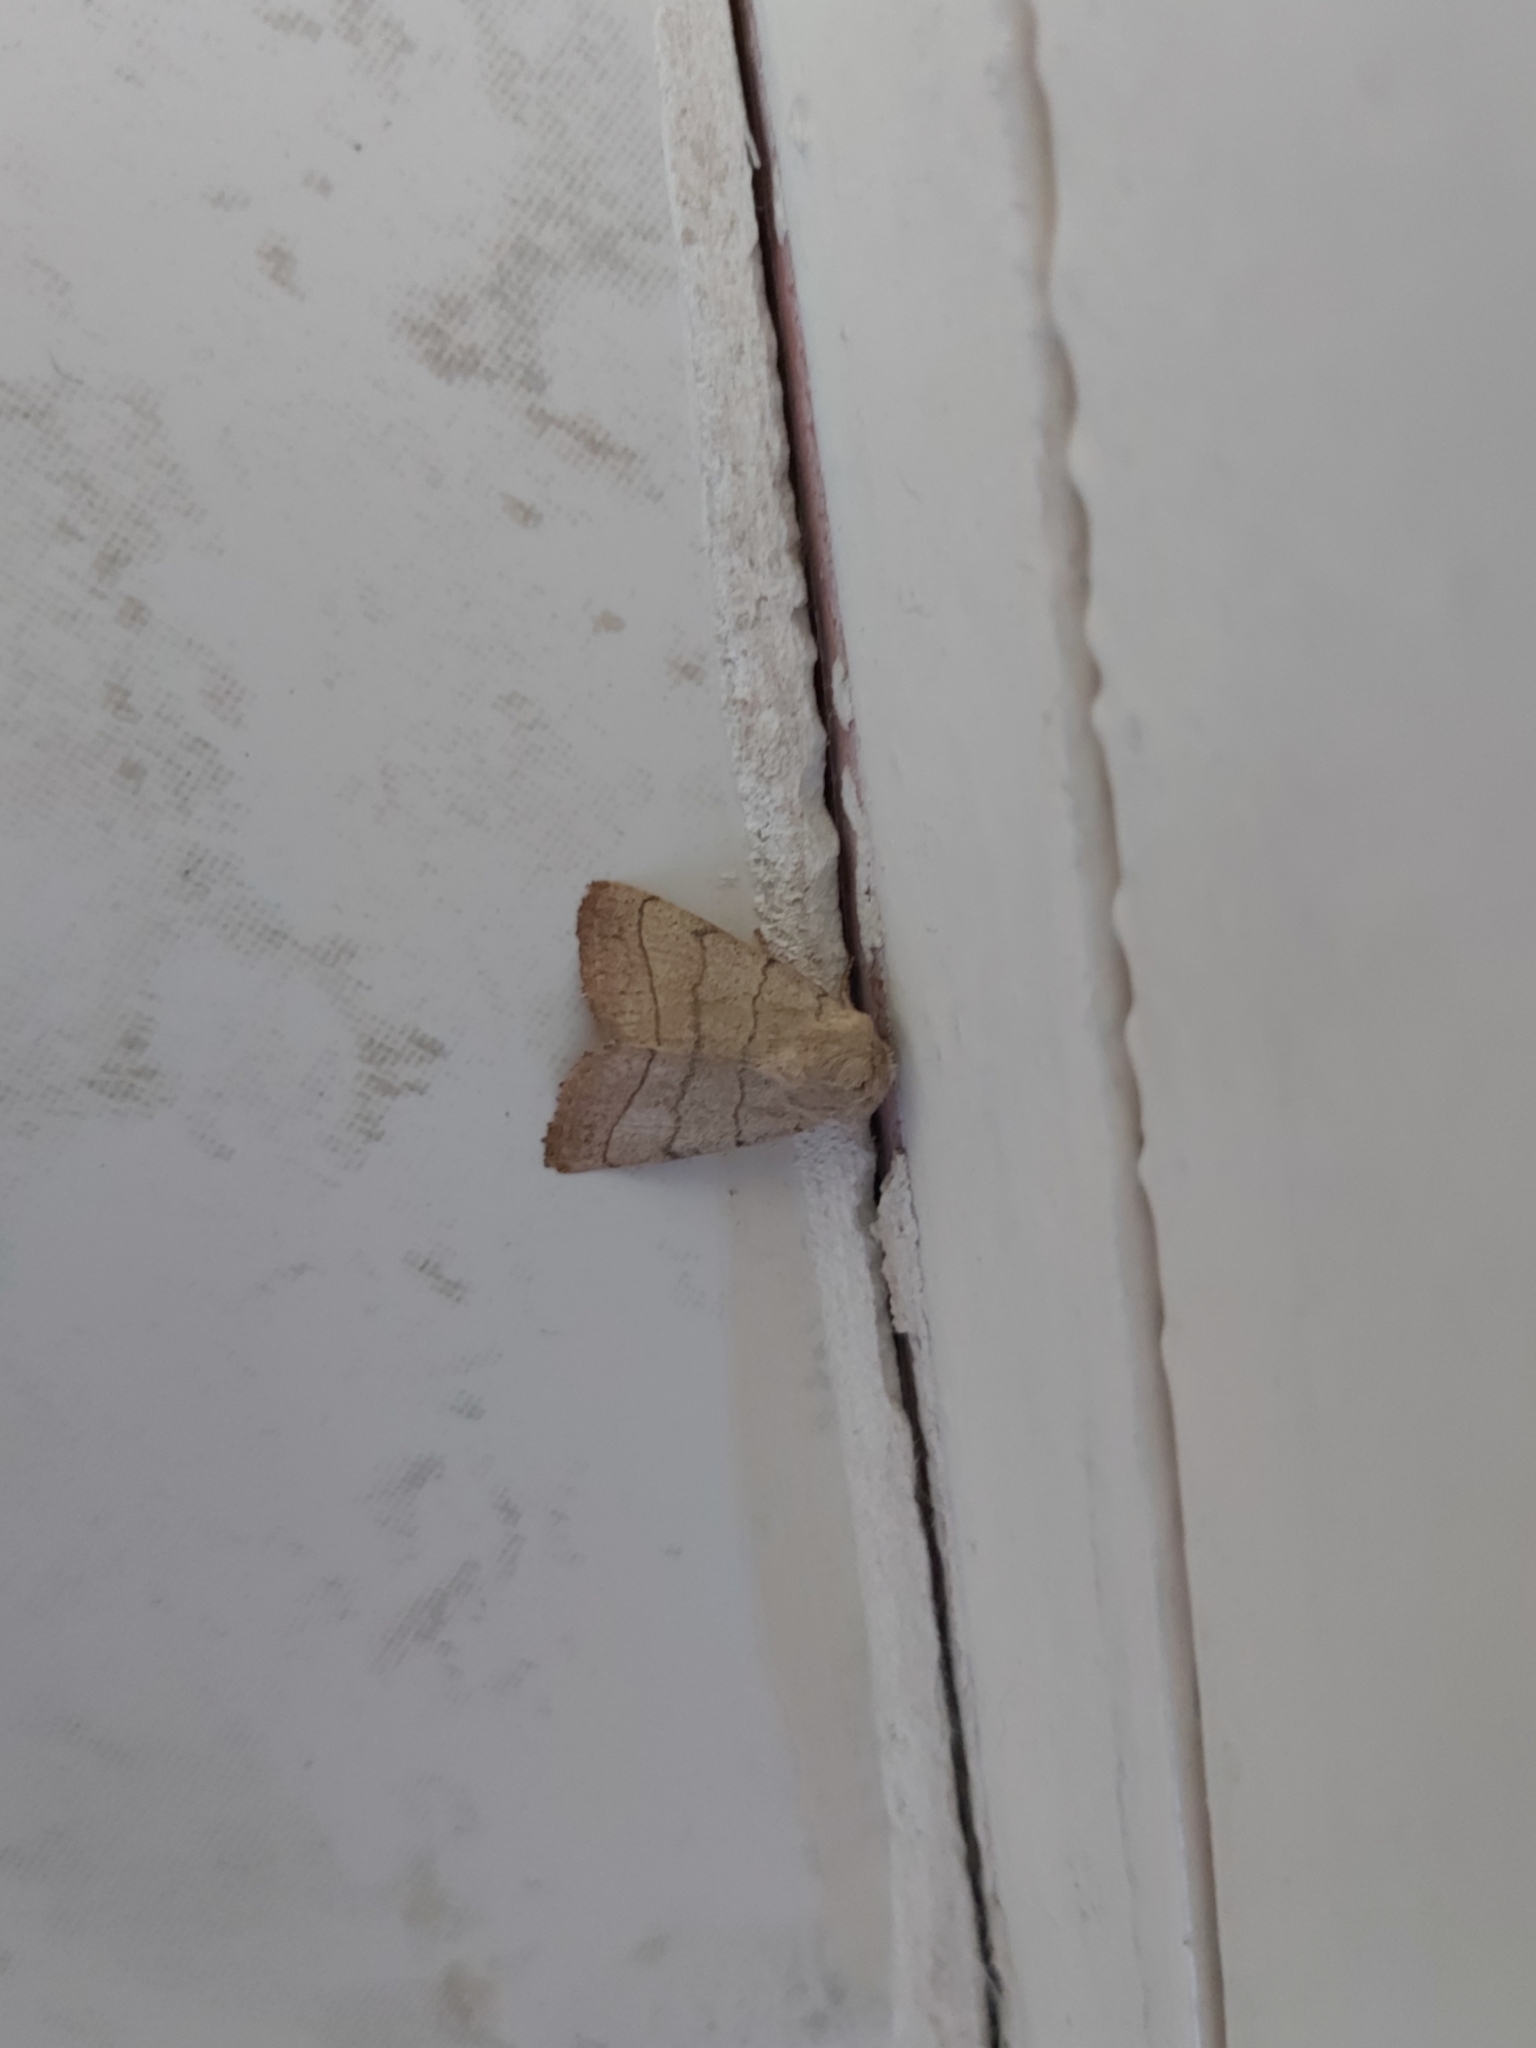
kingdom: Animalia
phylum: Arthropoda
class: Insecta
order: Lepidoptera
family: Noctuidae
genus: Charanyca
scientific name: Charanyca trigrammica
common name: Treble lines
